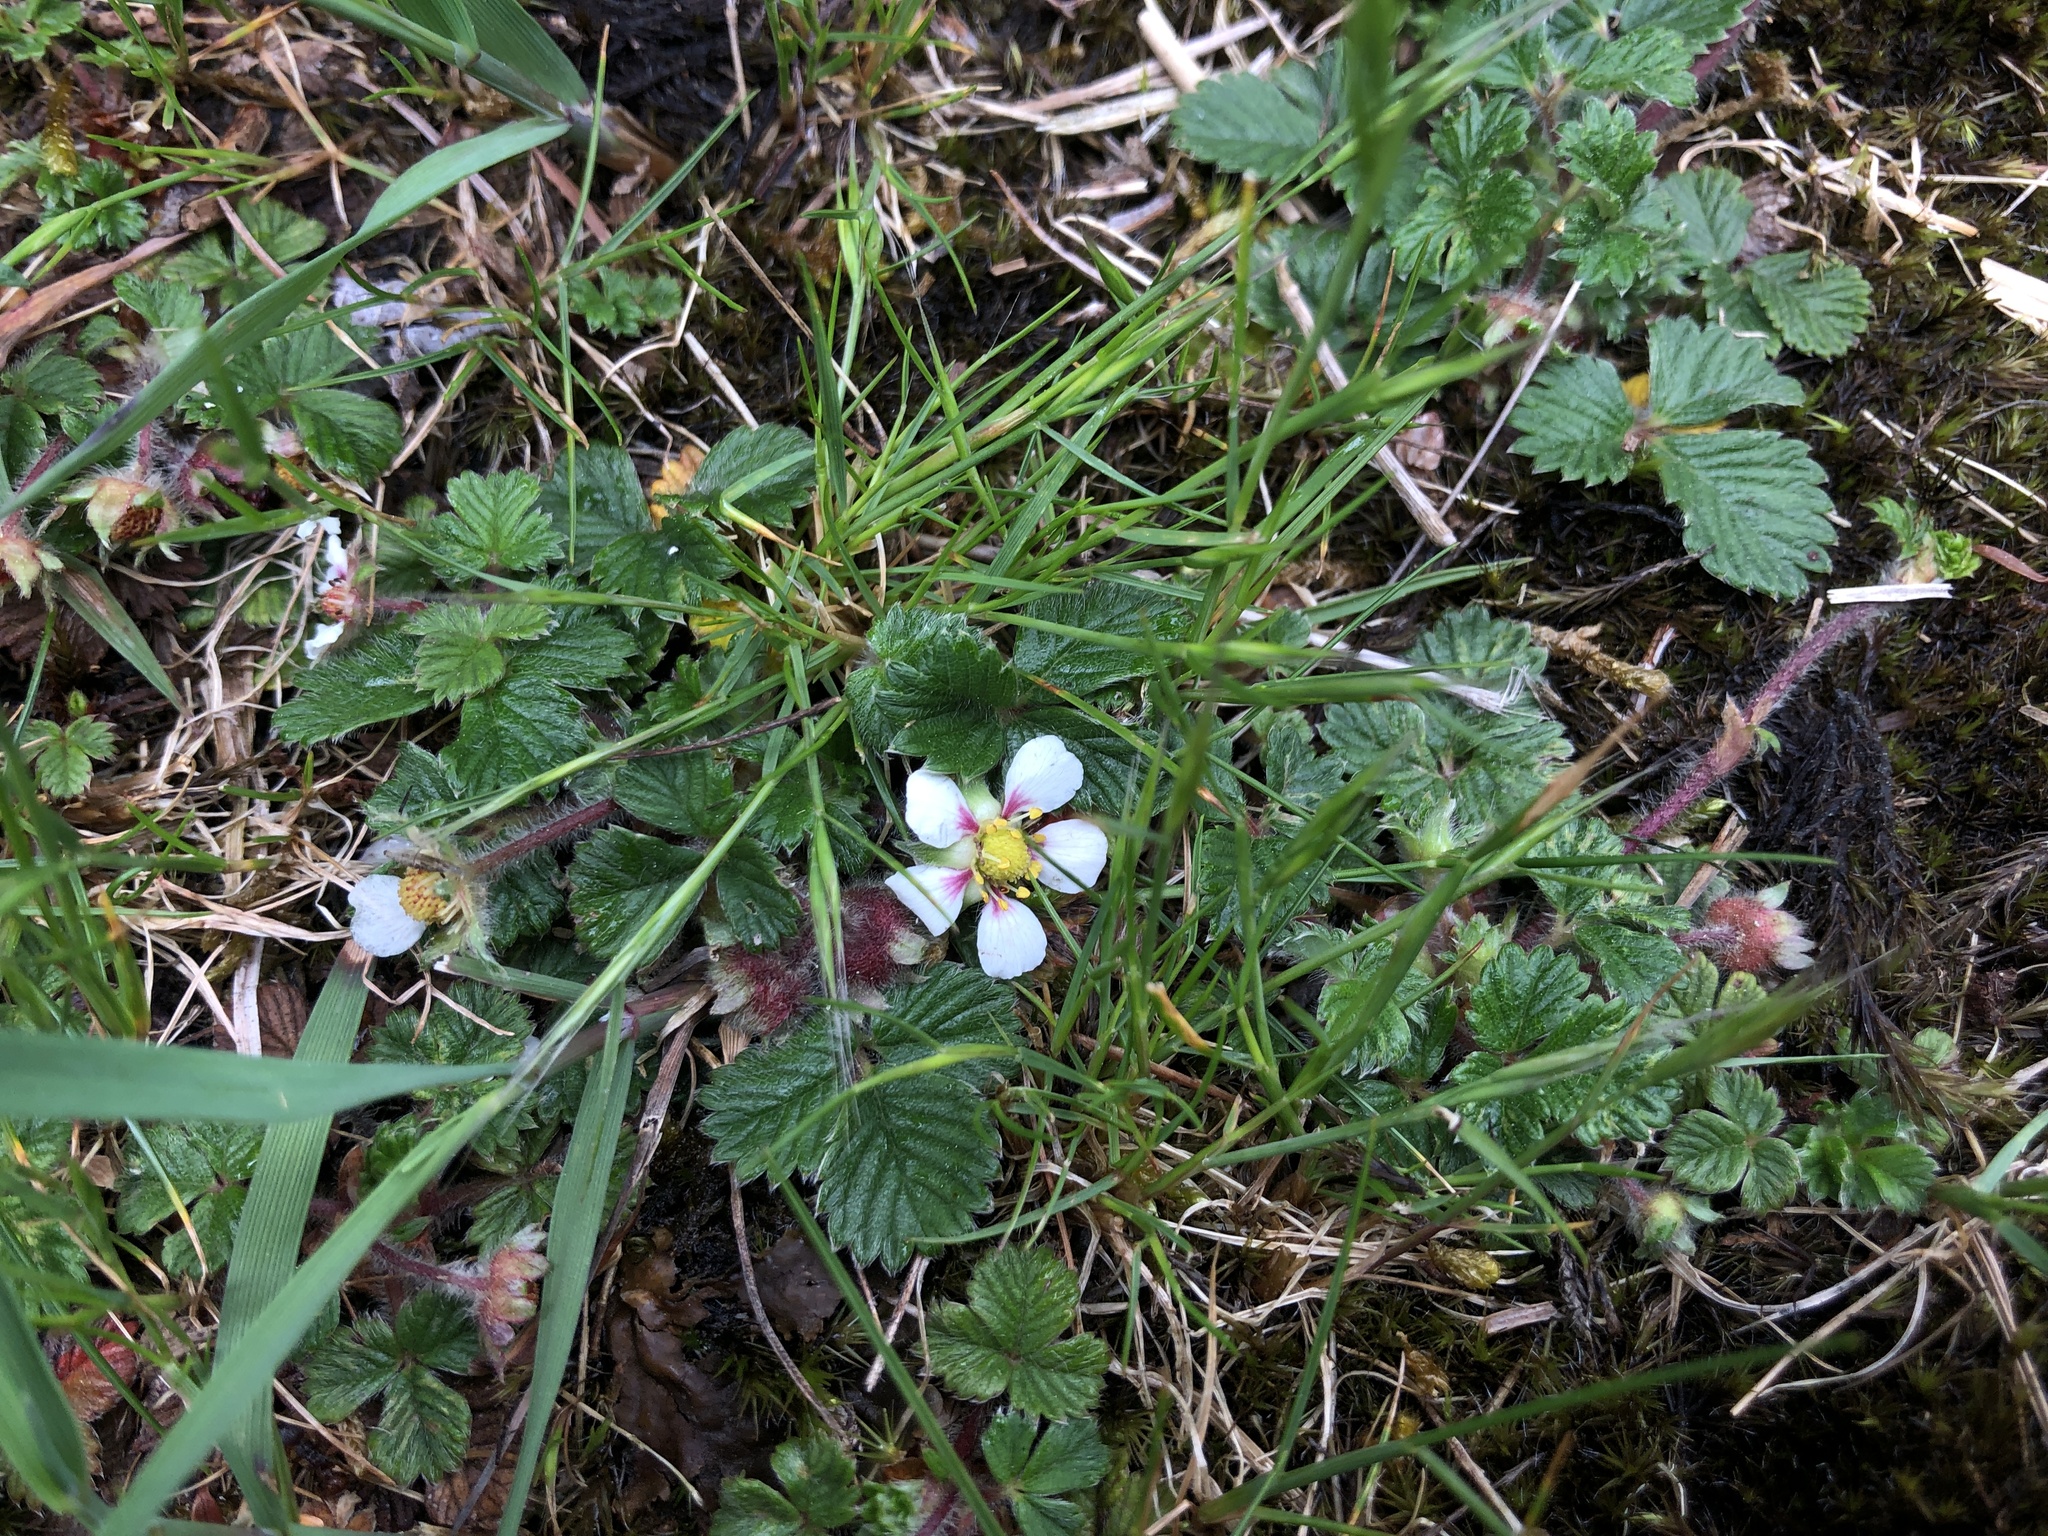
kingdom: Plantae
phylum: Tracheophyta
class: Magnoliopsida
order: Rosales
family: Rosaceae
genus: Fragaria
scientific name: Fragaria nilgerrensis
